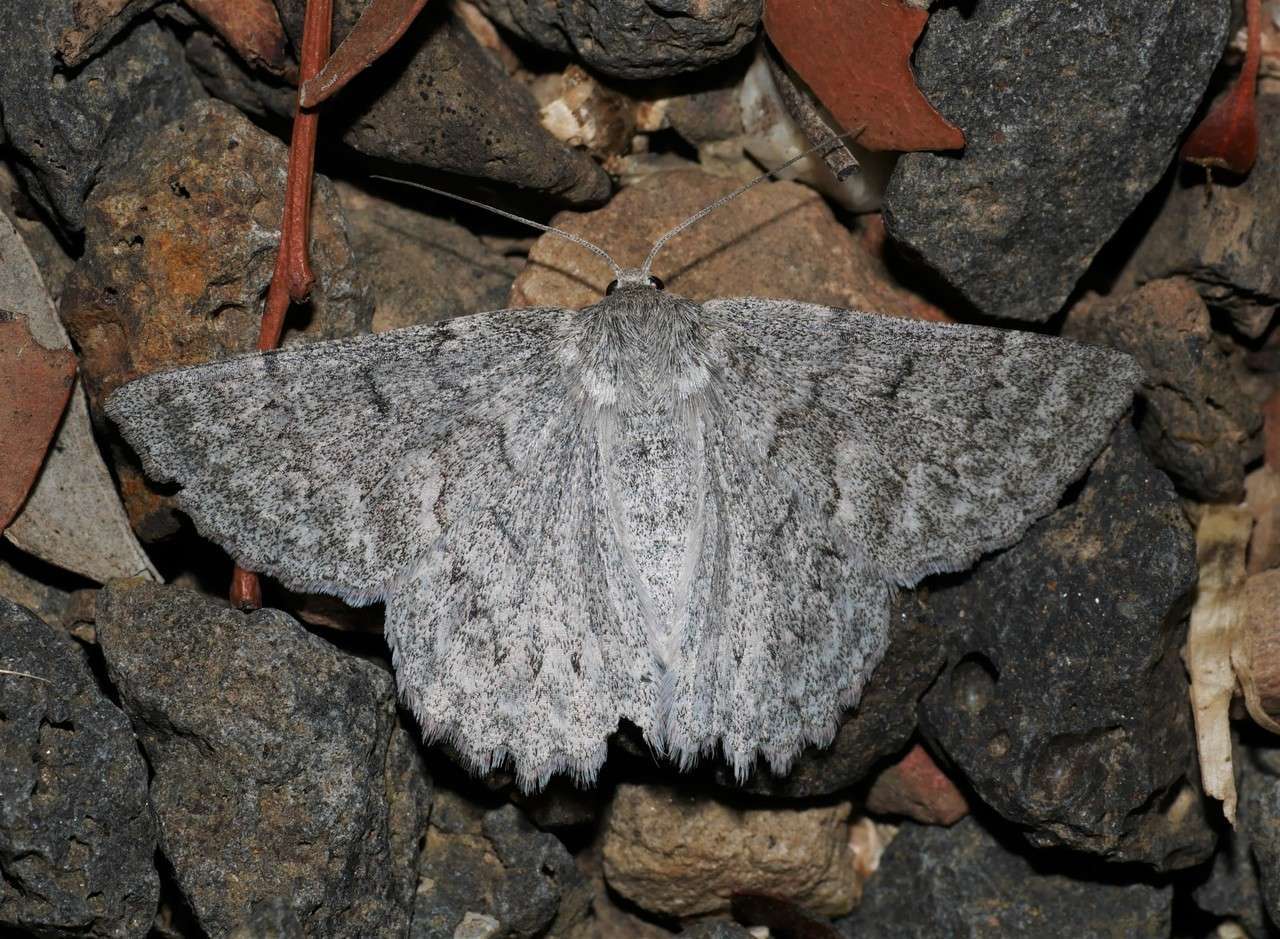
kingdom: Animalia
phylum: Arthropoda
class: Insecta
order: Lepidoptera
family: Geometridae
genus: Crypsiphona
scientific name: Crypsiphona ocultaria
